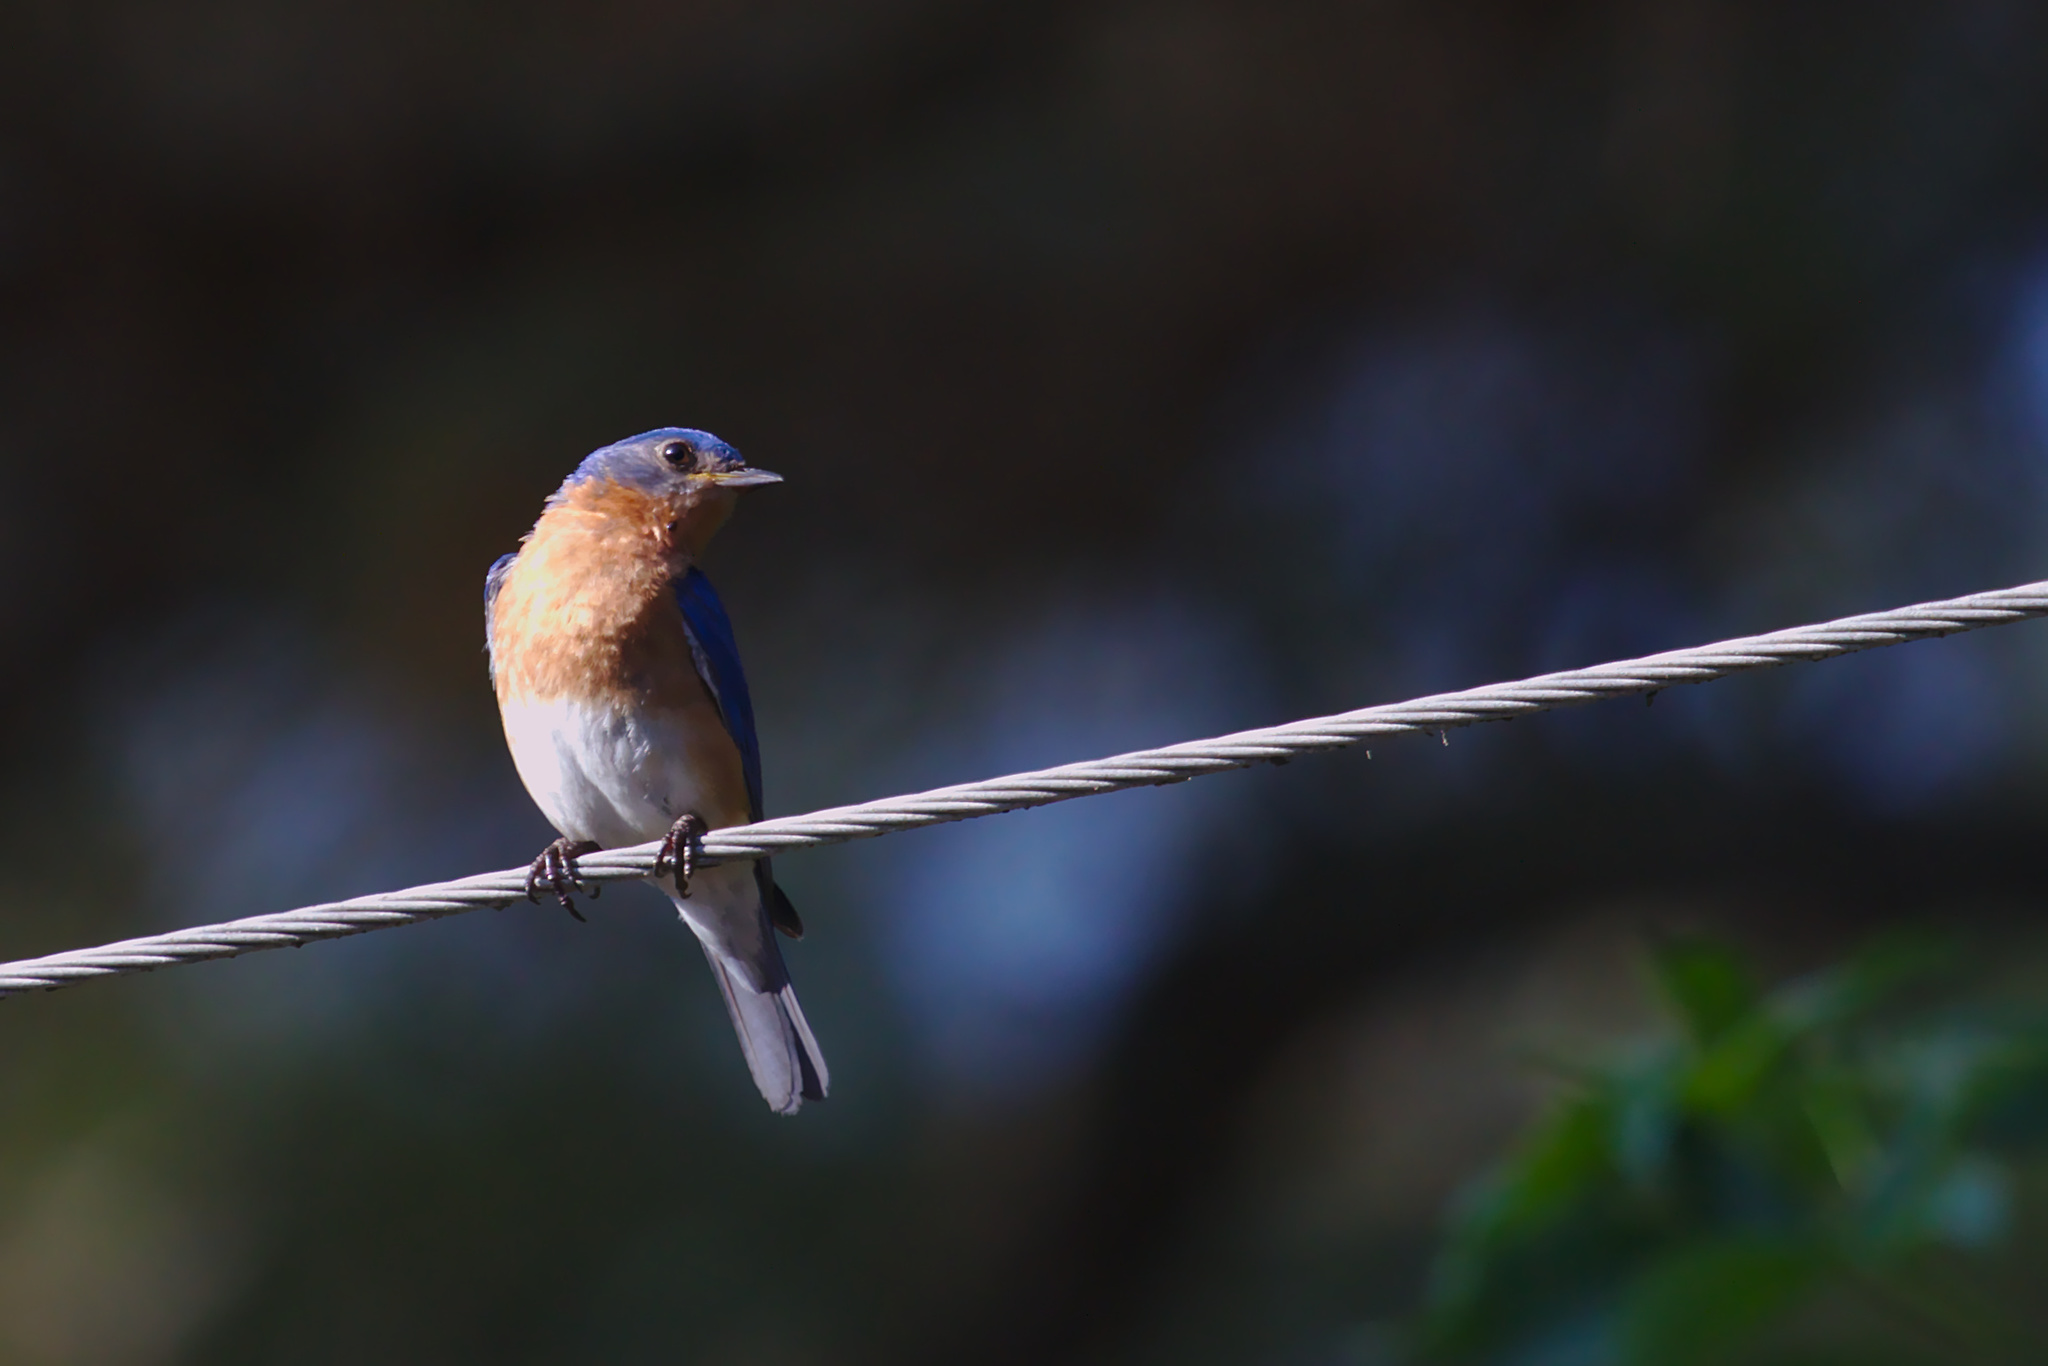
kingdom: Animalia
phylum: Chordata
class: Aves
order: Passeriformes
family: Turdidae
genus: Sialia
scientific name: Sialia sialis
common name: Eastern bluebird
